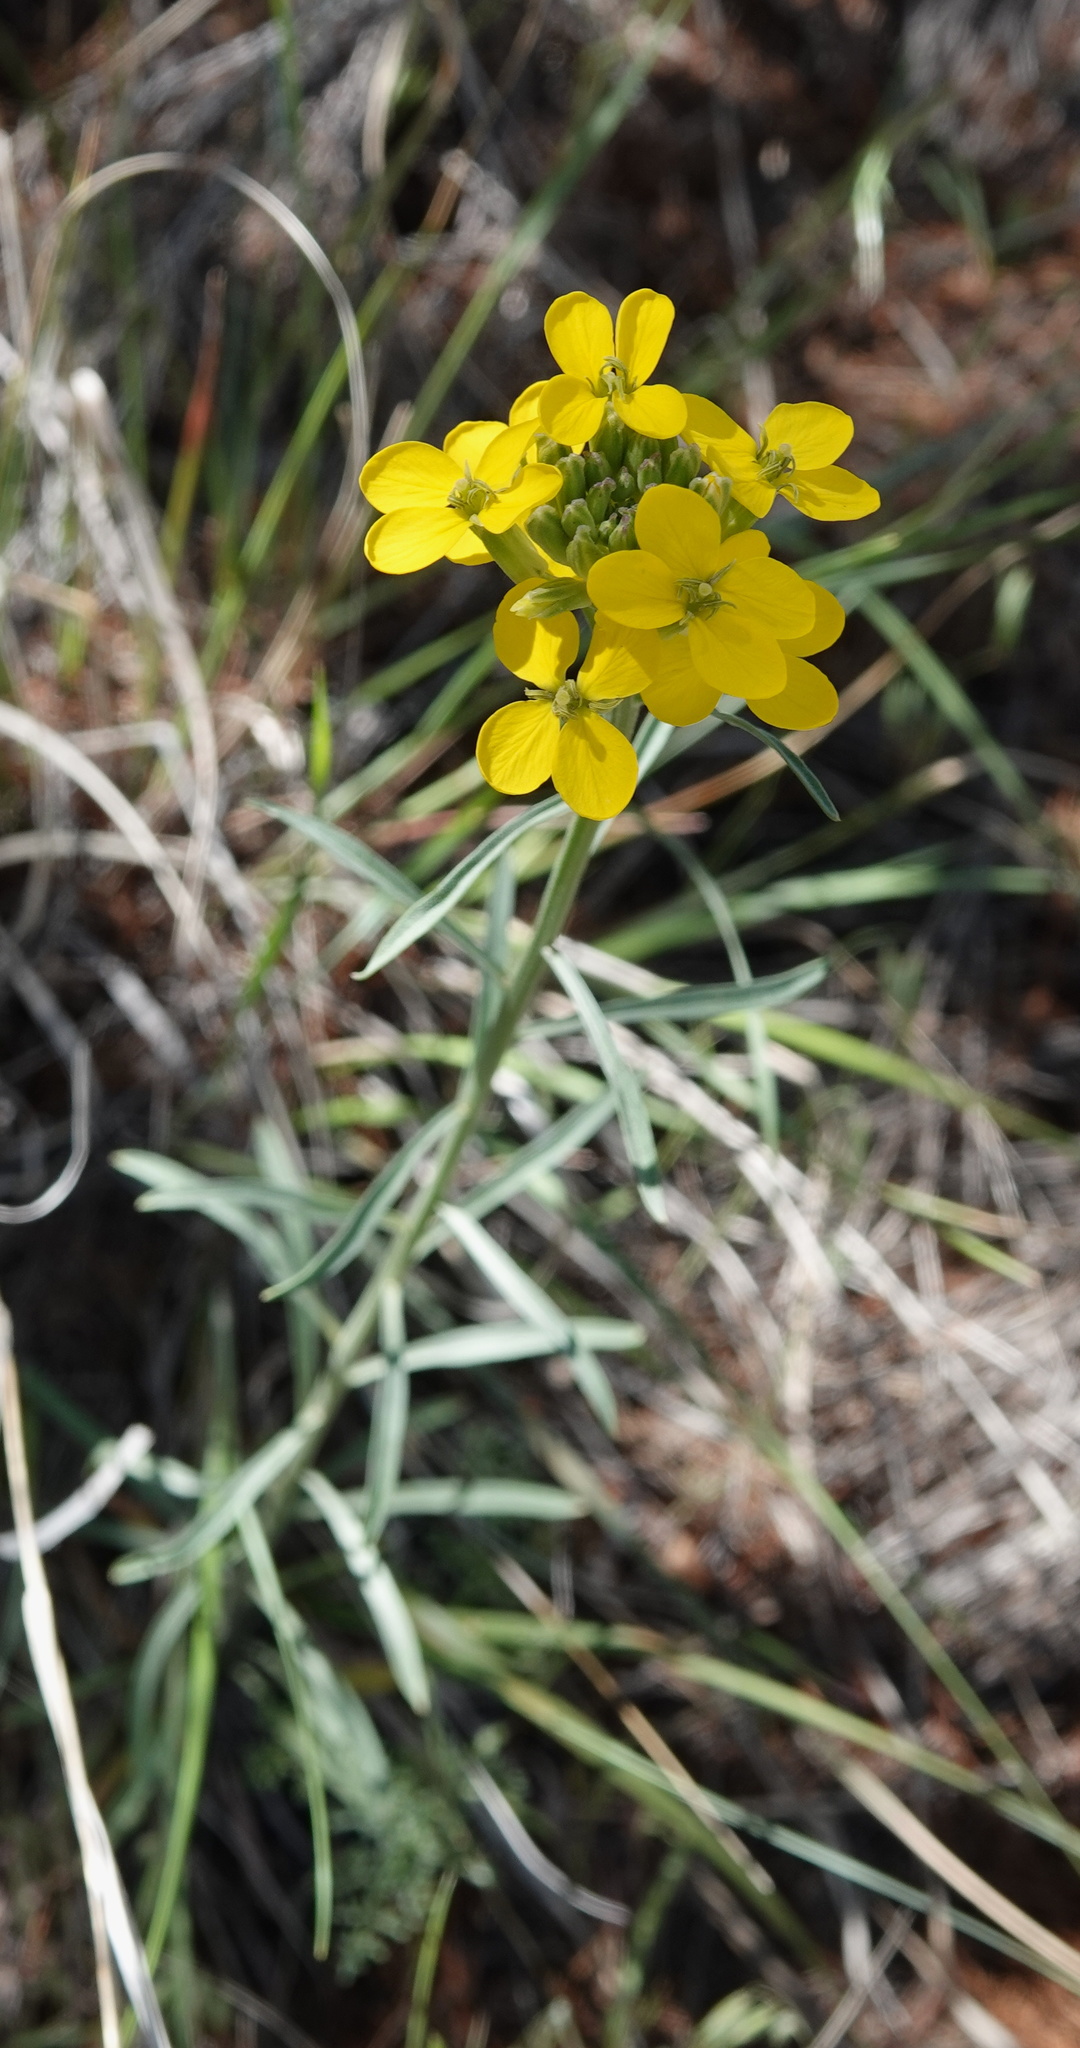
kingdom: Plantae
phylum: Tracheophyta
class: Magnoliopsida
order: Brassicales
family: Brassicaceae
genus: Erysimum
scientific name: Erysimum capitatum
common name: Western wallflower
